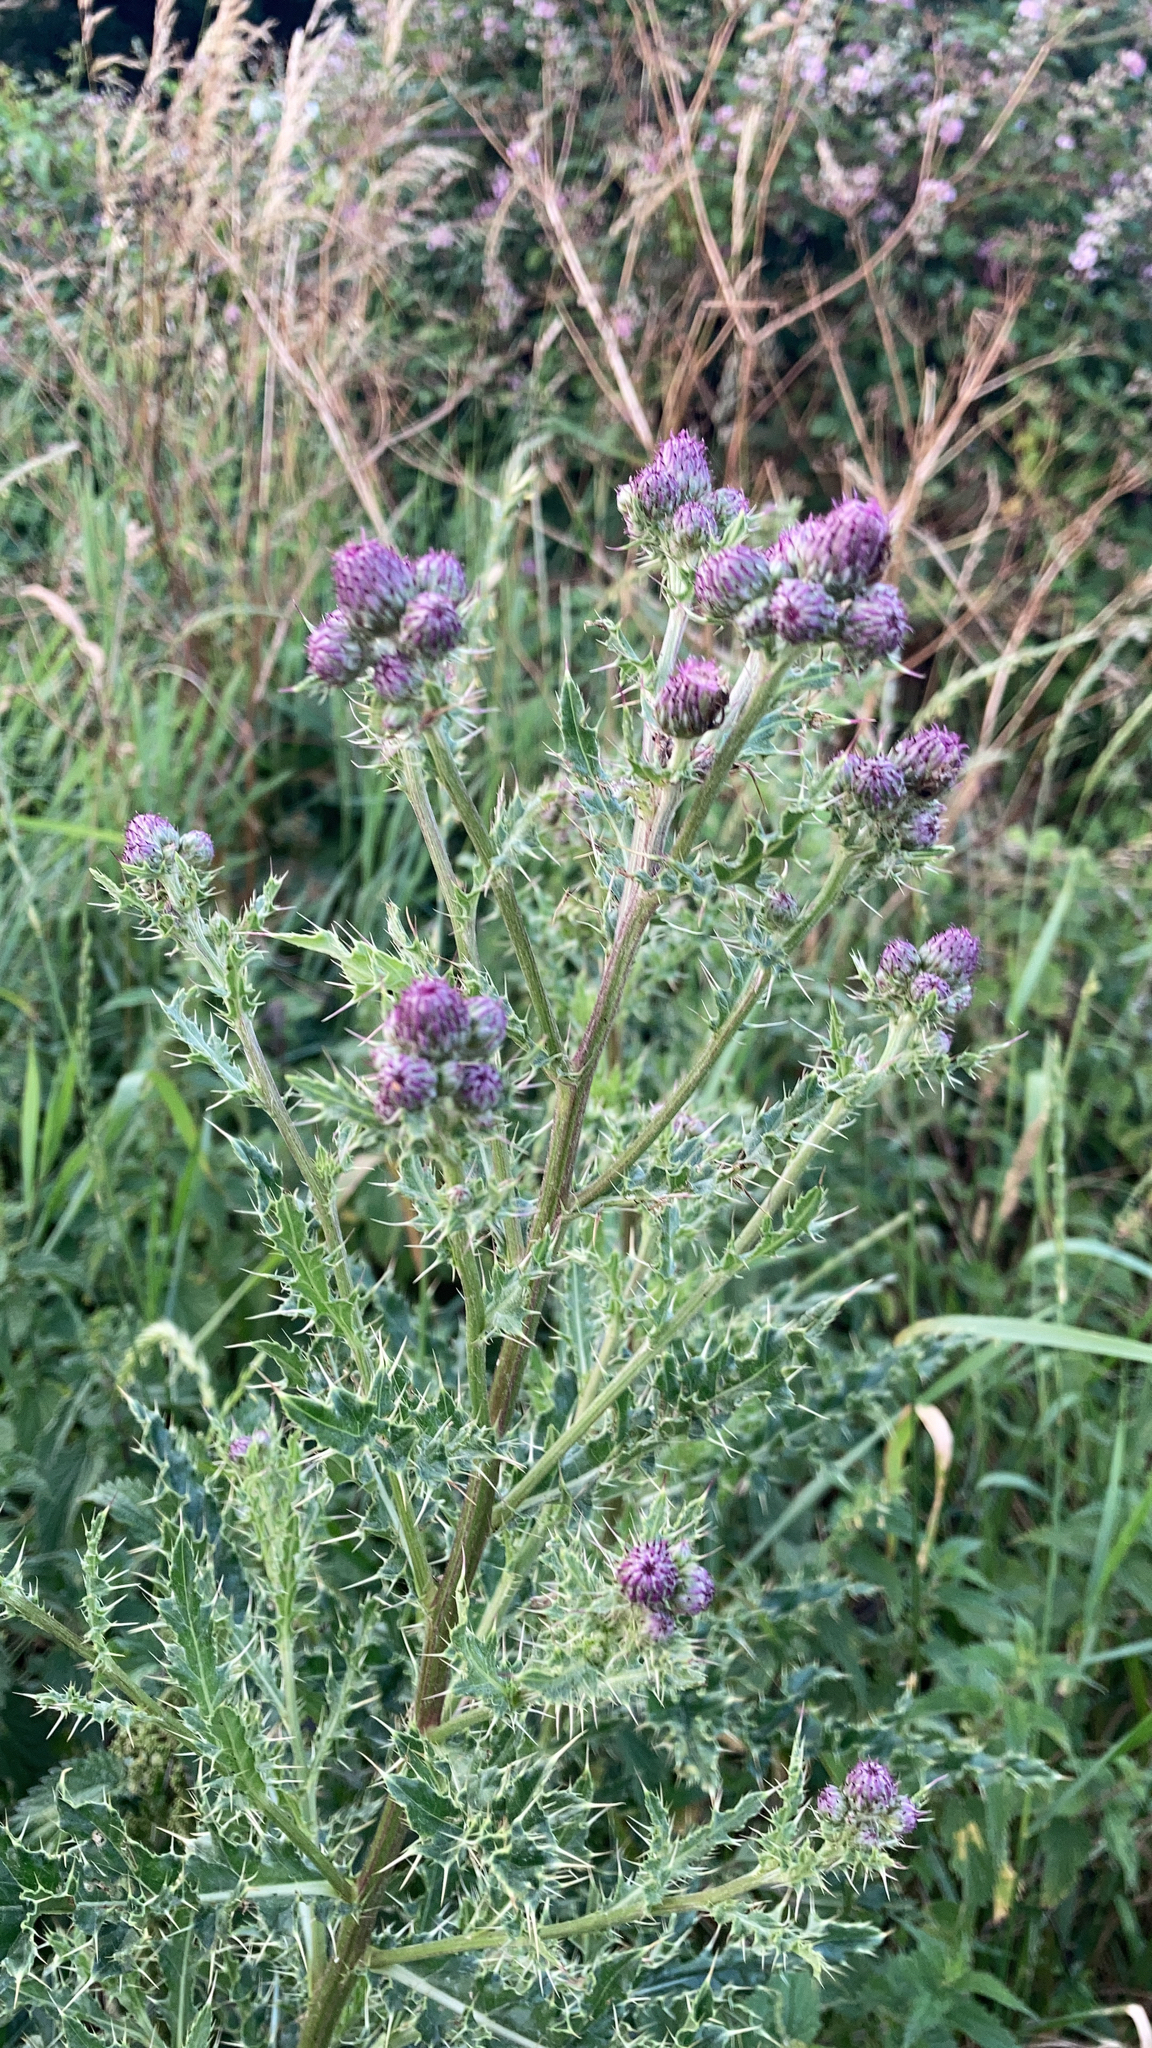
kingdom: Plantae
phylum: Tracheophyta
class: Magnoliopsida
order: Asterales
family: Asteraceae
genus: Cirsium
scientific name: Cirsium arvense
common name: Creeping thistle
